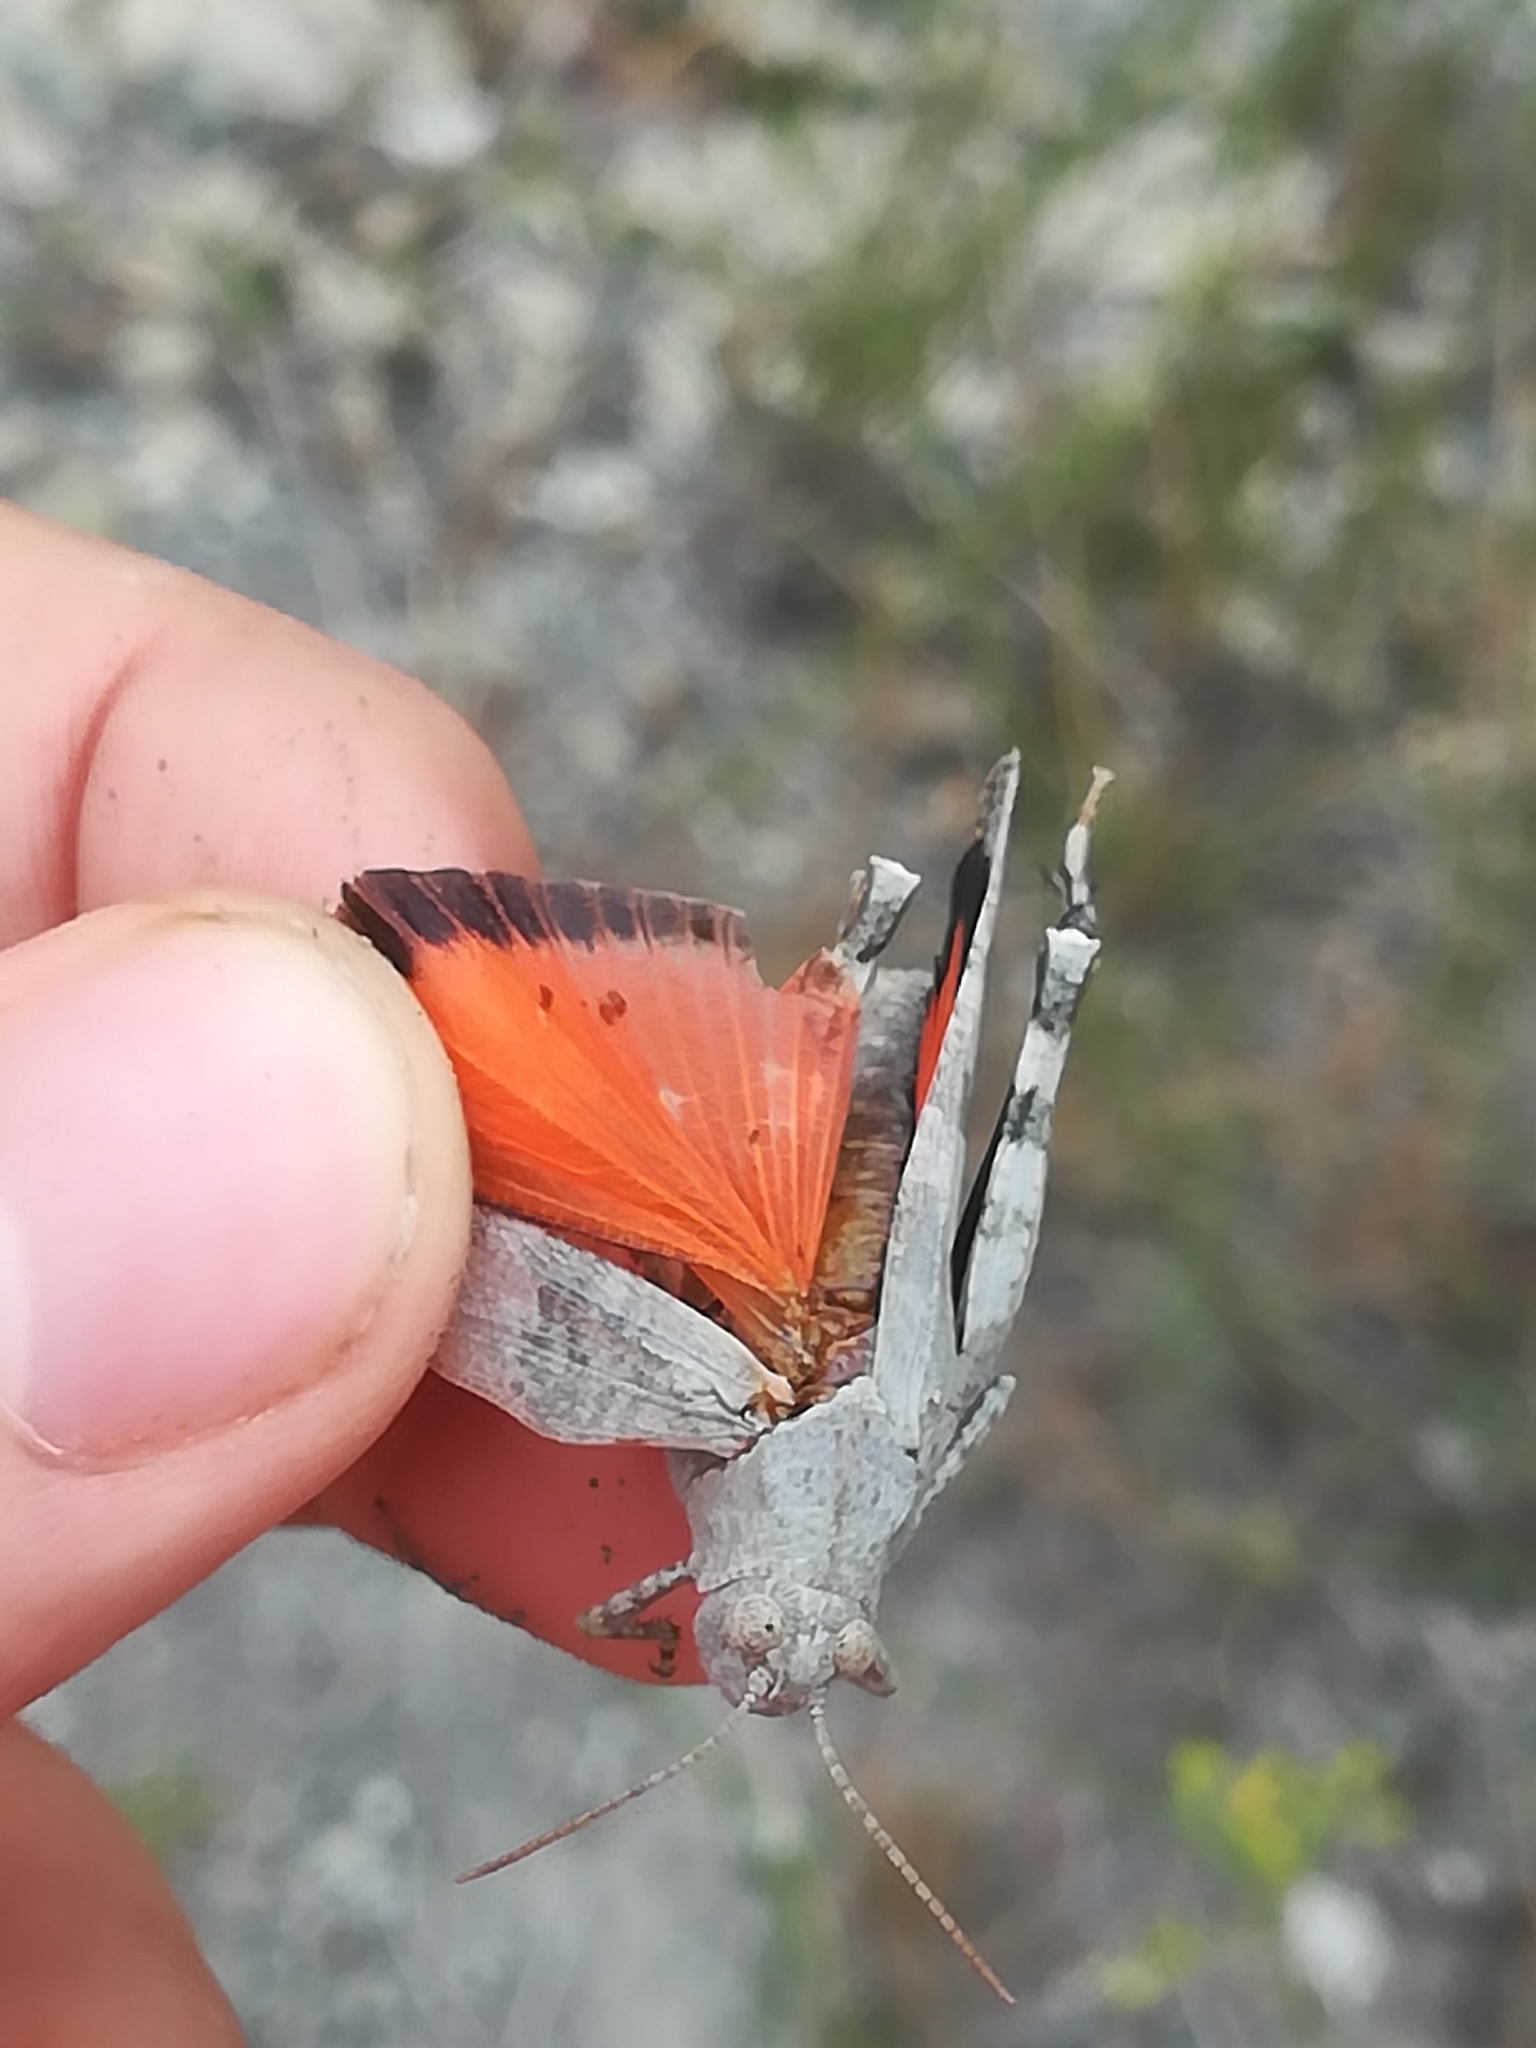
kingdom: Animalia
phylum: Arthropoda
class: Insecta
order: Orthoptera
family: Acrididae
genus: Oedipoda
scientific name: Oedipoda germanica
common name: Red band-winged grasshopper
